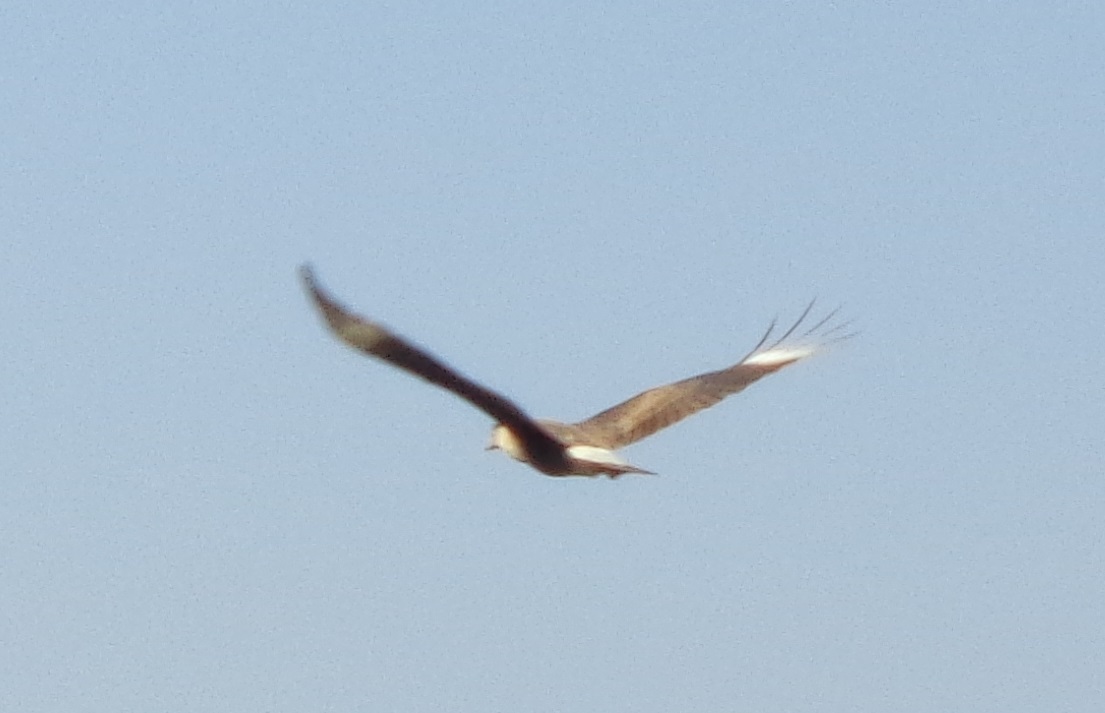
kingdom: Animalia
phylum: Chordata
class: Aves
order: Falconiformes
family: Falconidae
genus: Caracara
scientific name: Caracara plancus
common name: Southern caracara
